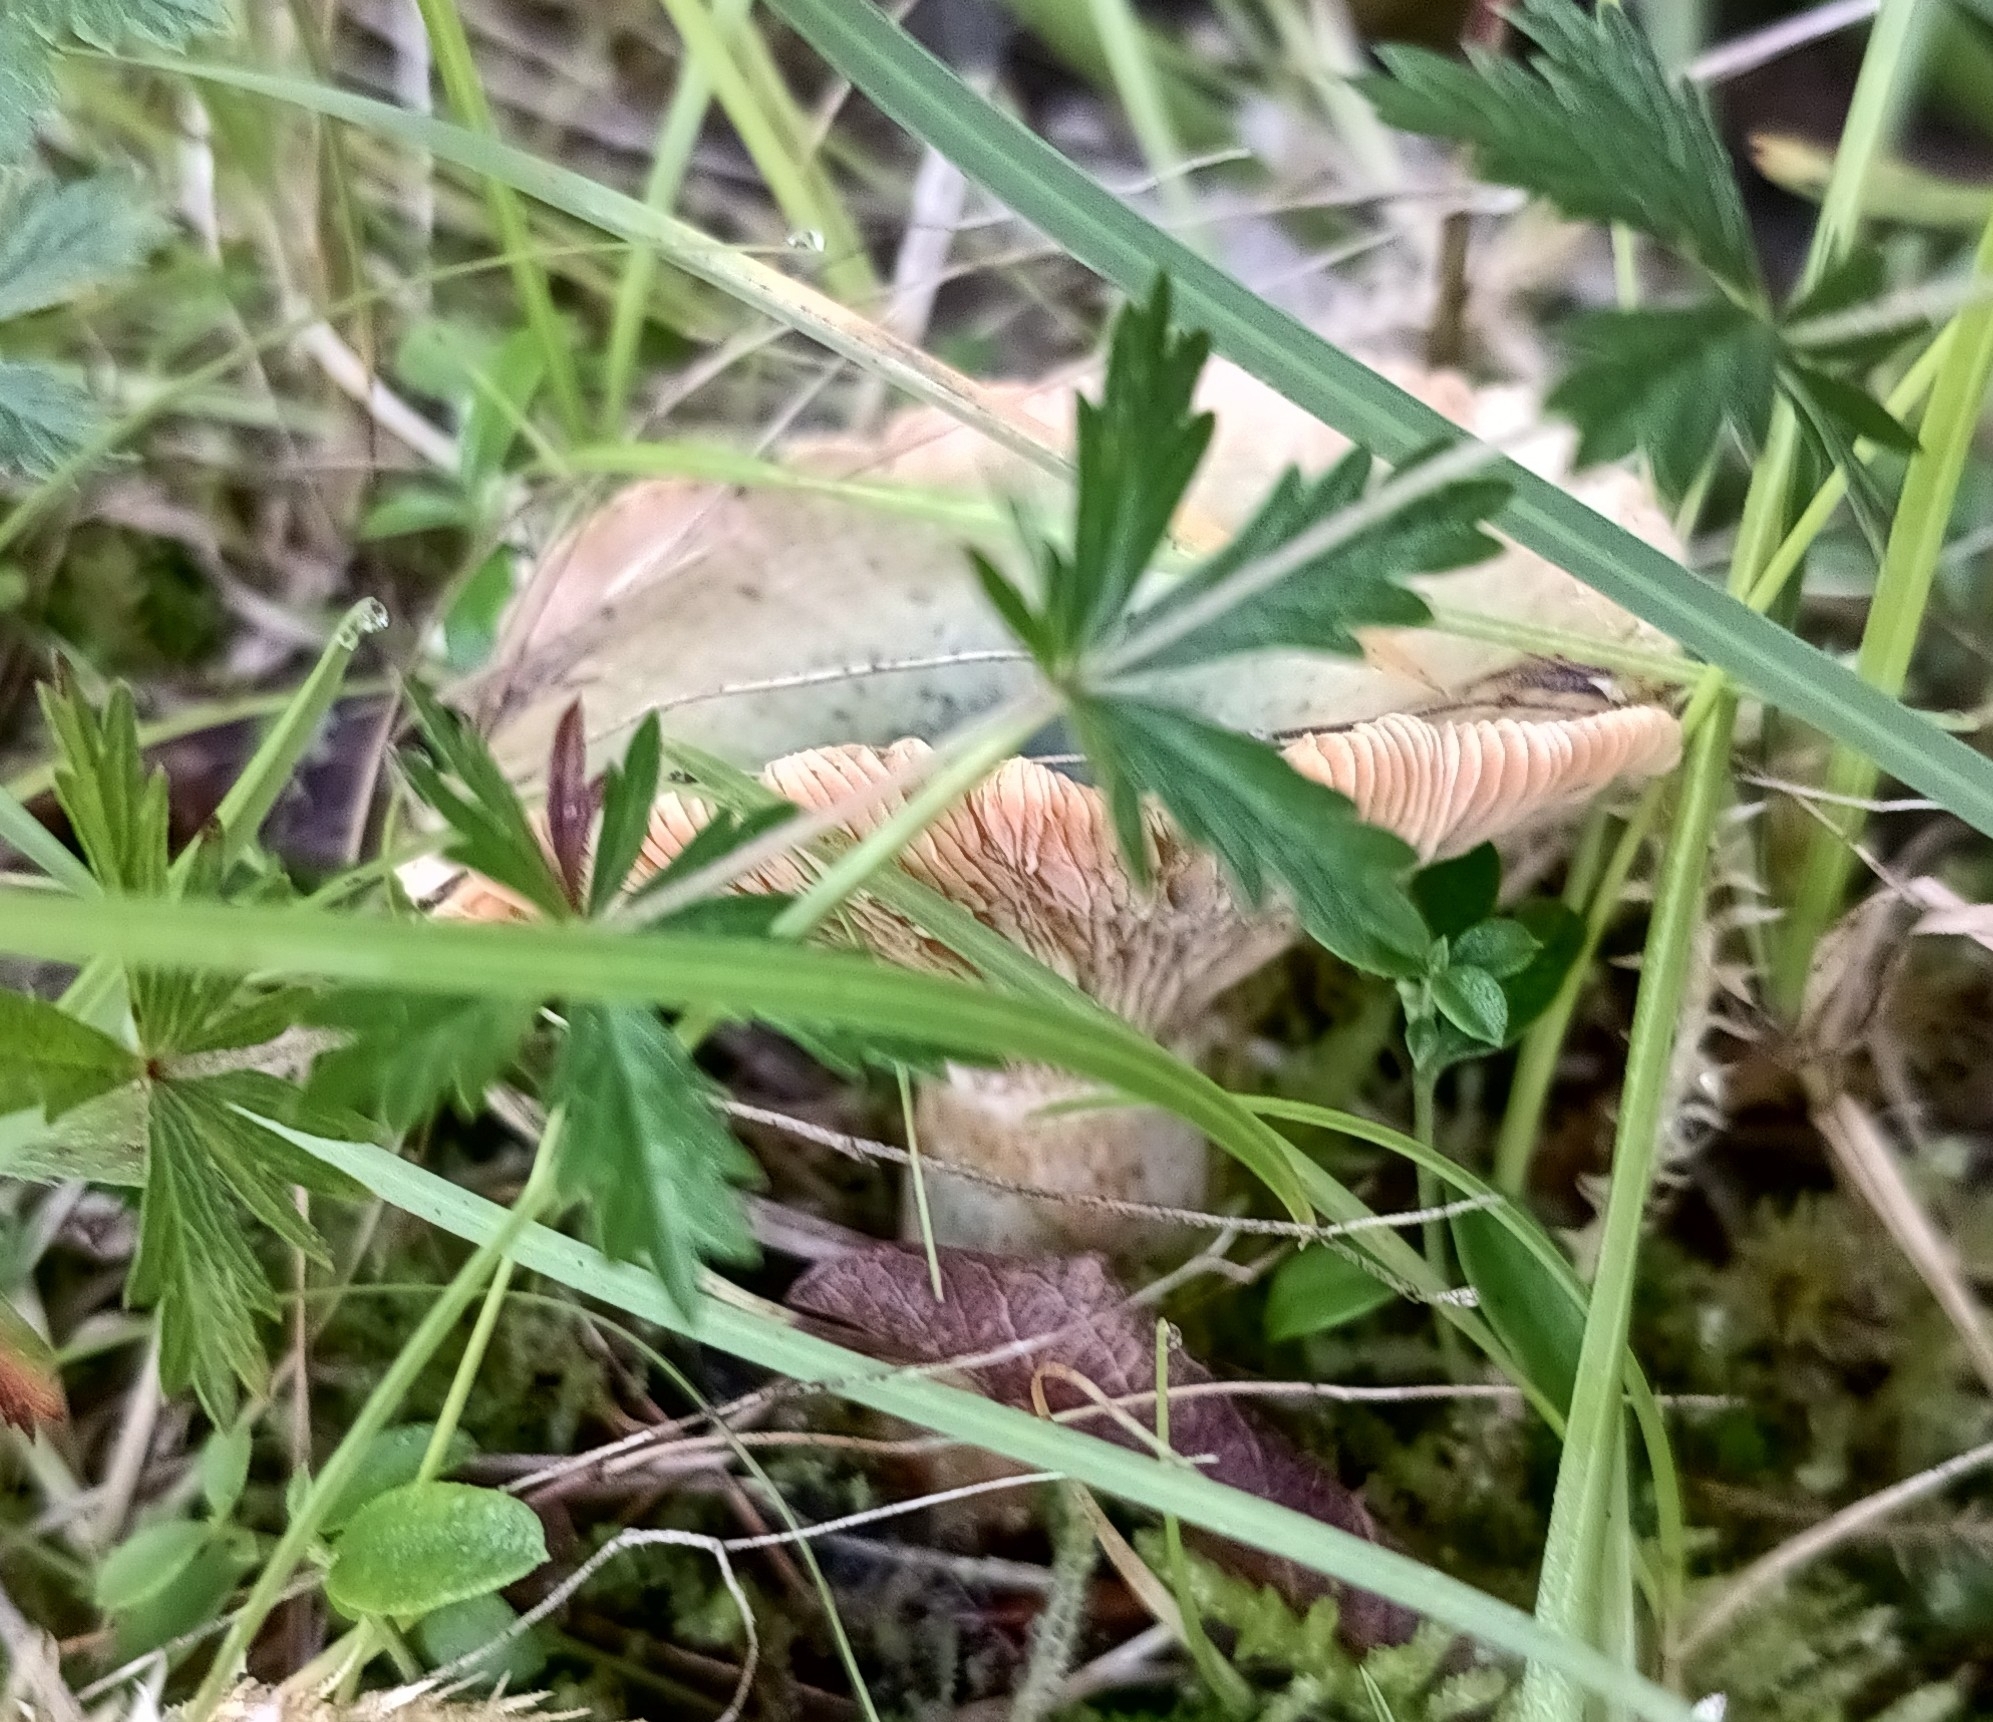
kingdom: Fungi
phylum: Basidiomycota
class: Agaricomycetes
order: Russulales
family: Russulaceae
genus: Lactarius
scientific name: Lactarius deterrimus
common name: False saffron milkcap
